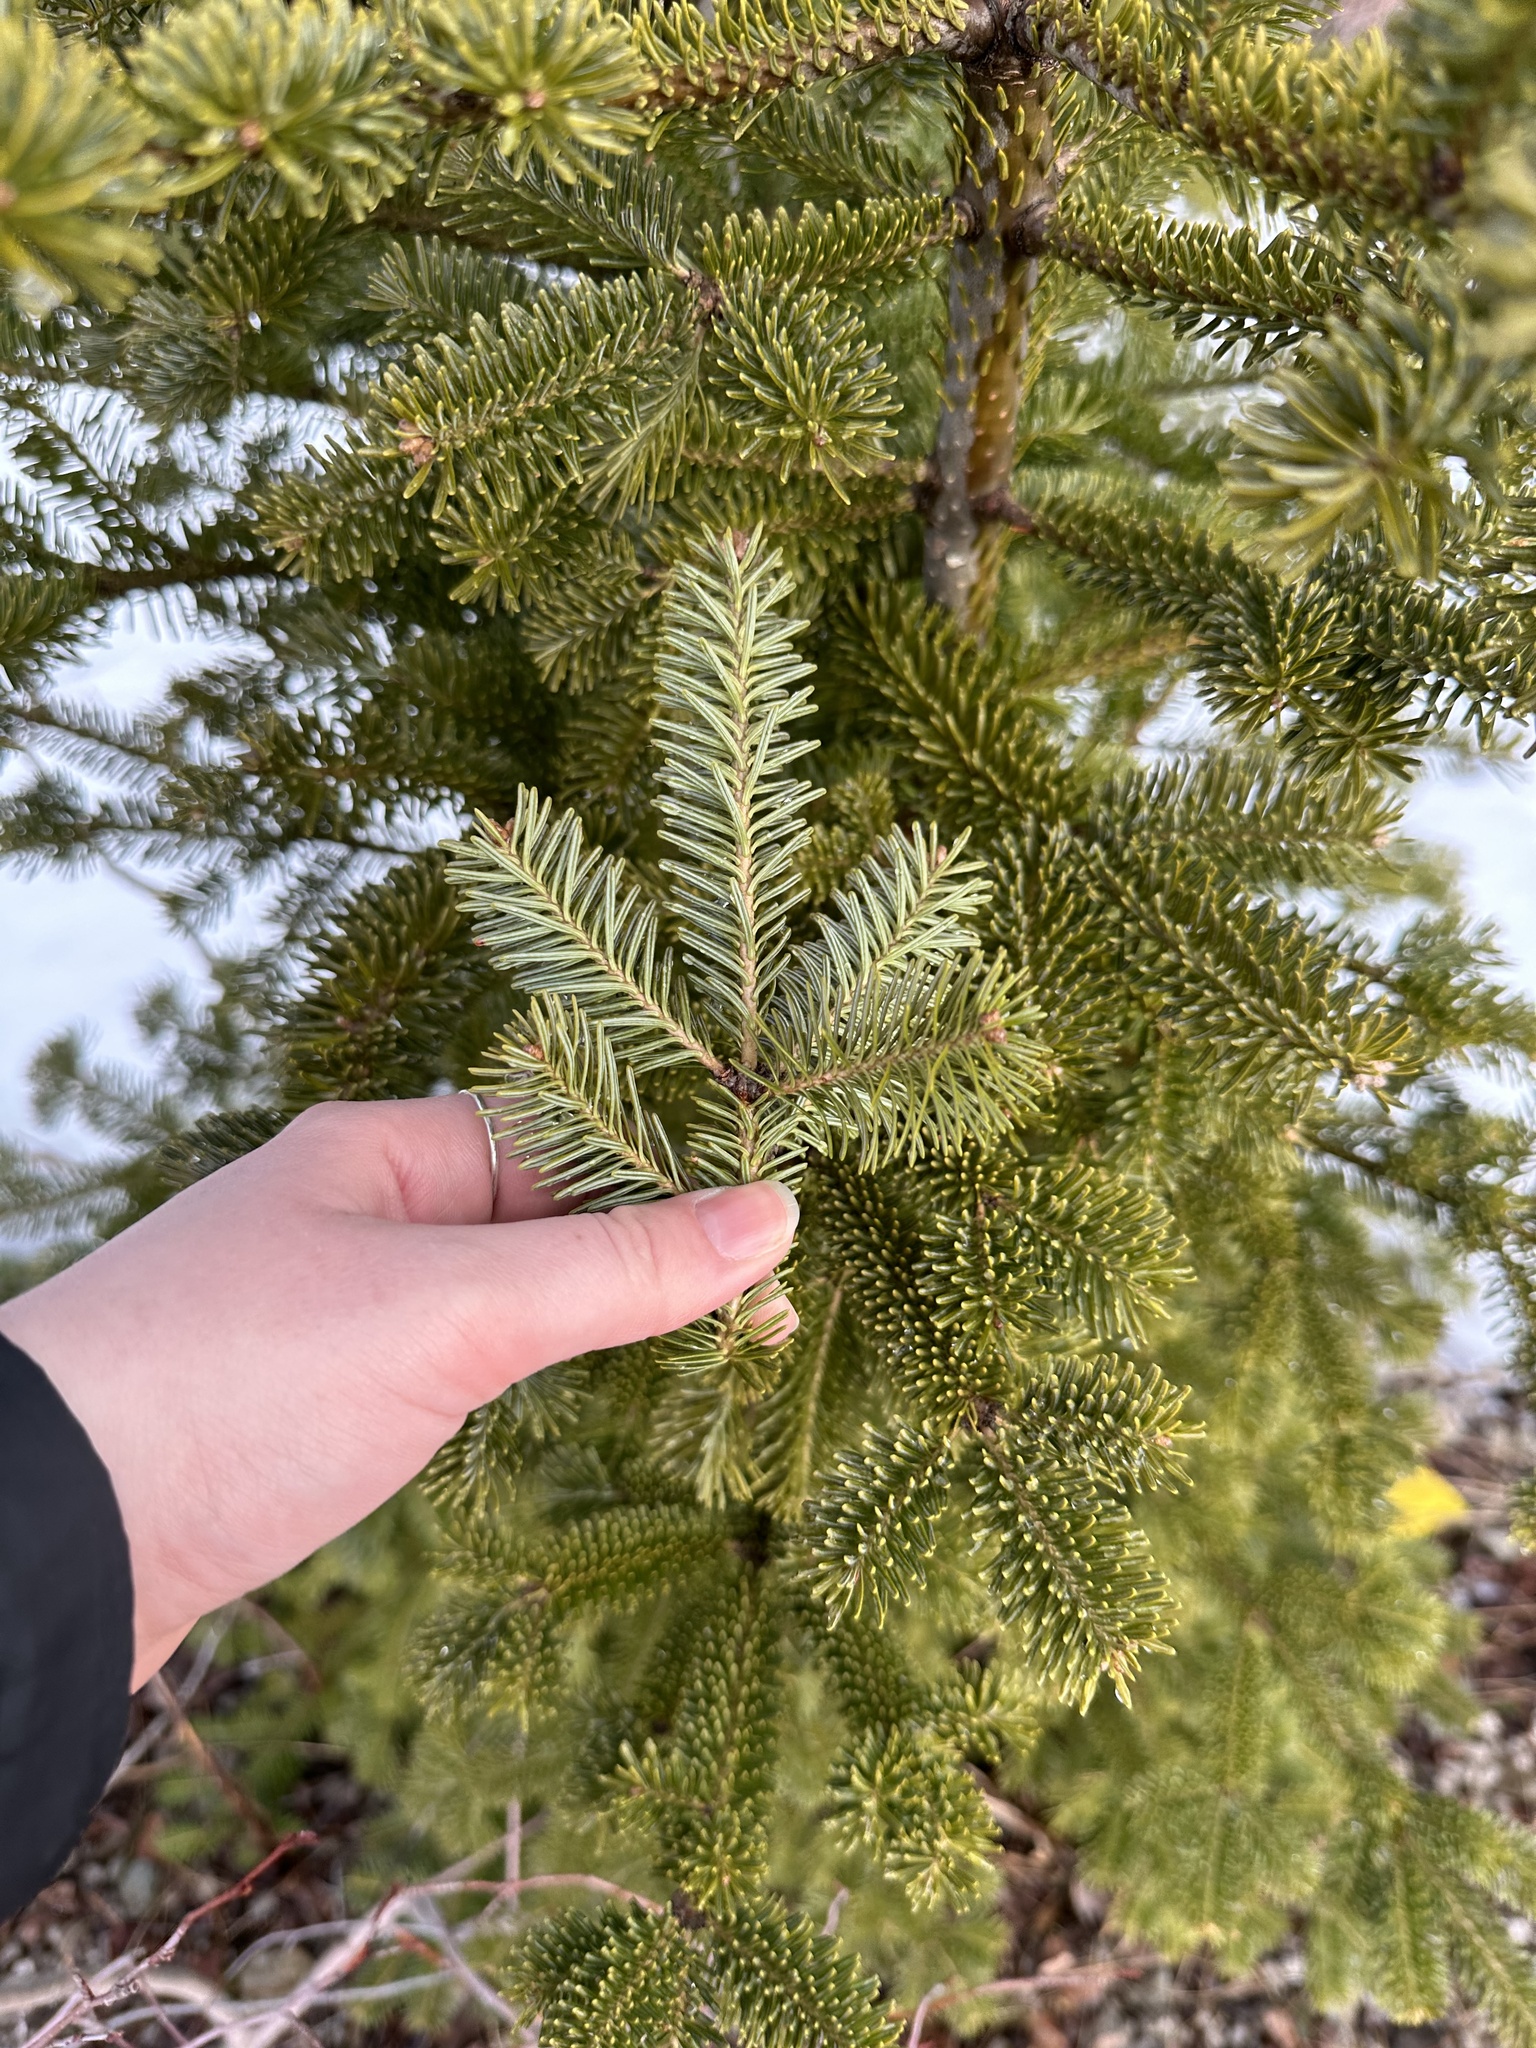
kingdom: Plantae
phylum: Tracheophyta
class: Pinopsida
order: Pinales
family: Pinaceae
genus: Abies
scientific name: Abies balsamea
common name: Balsam fir
